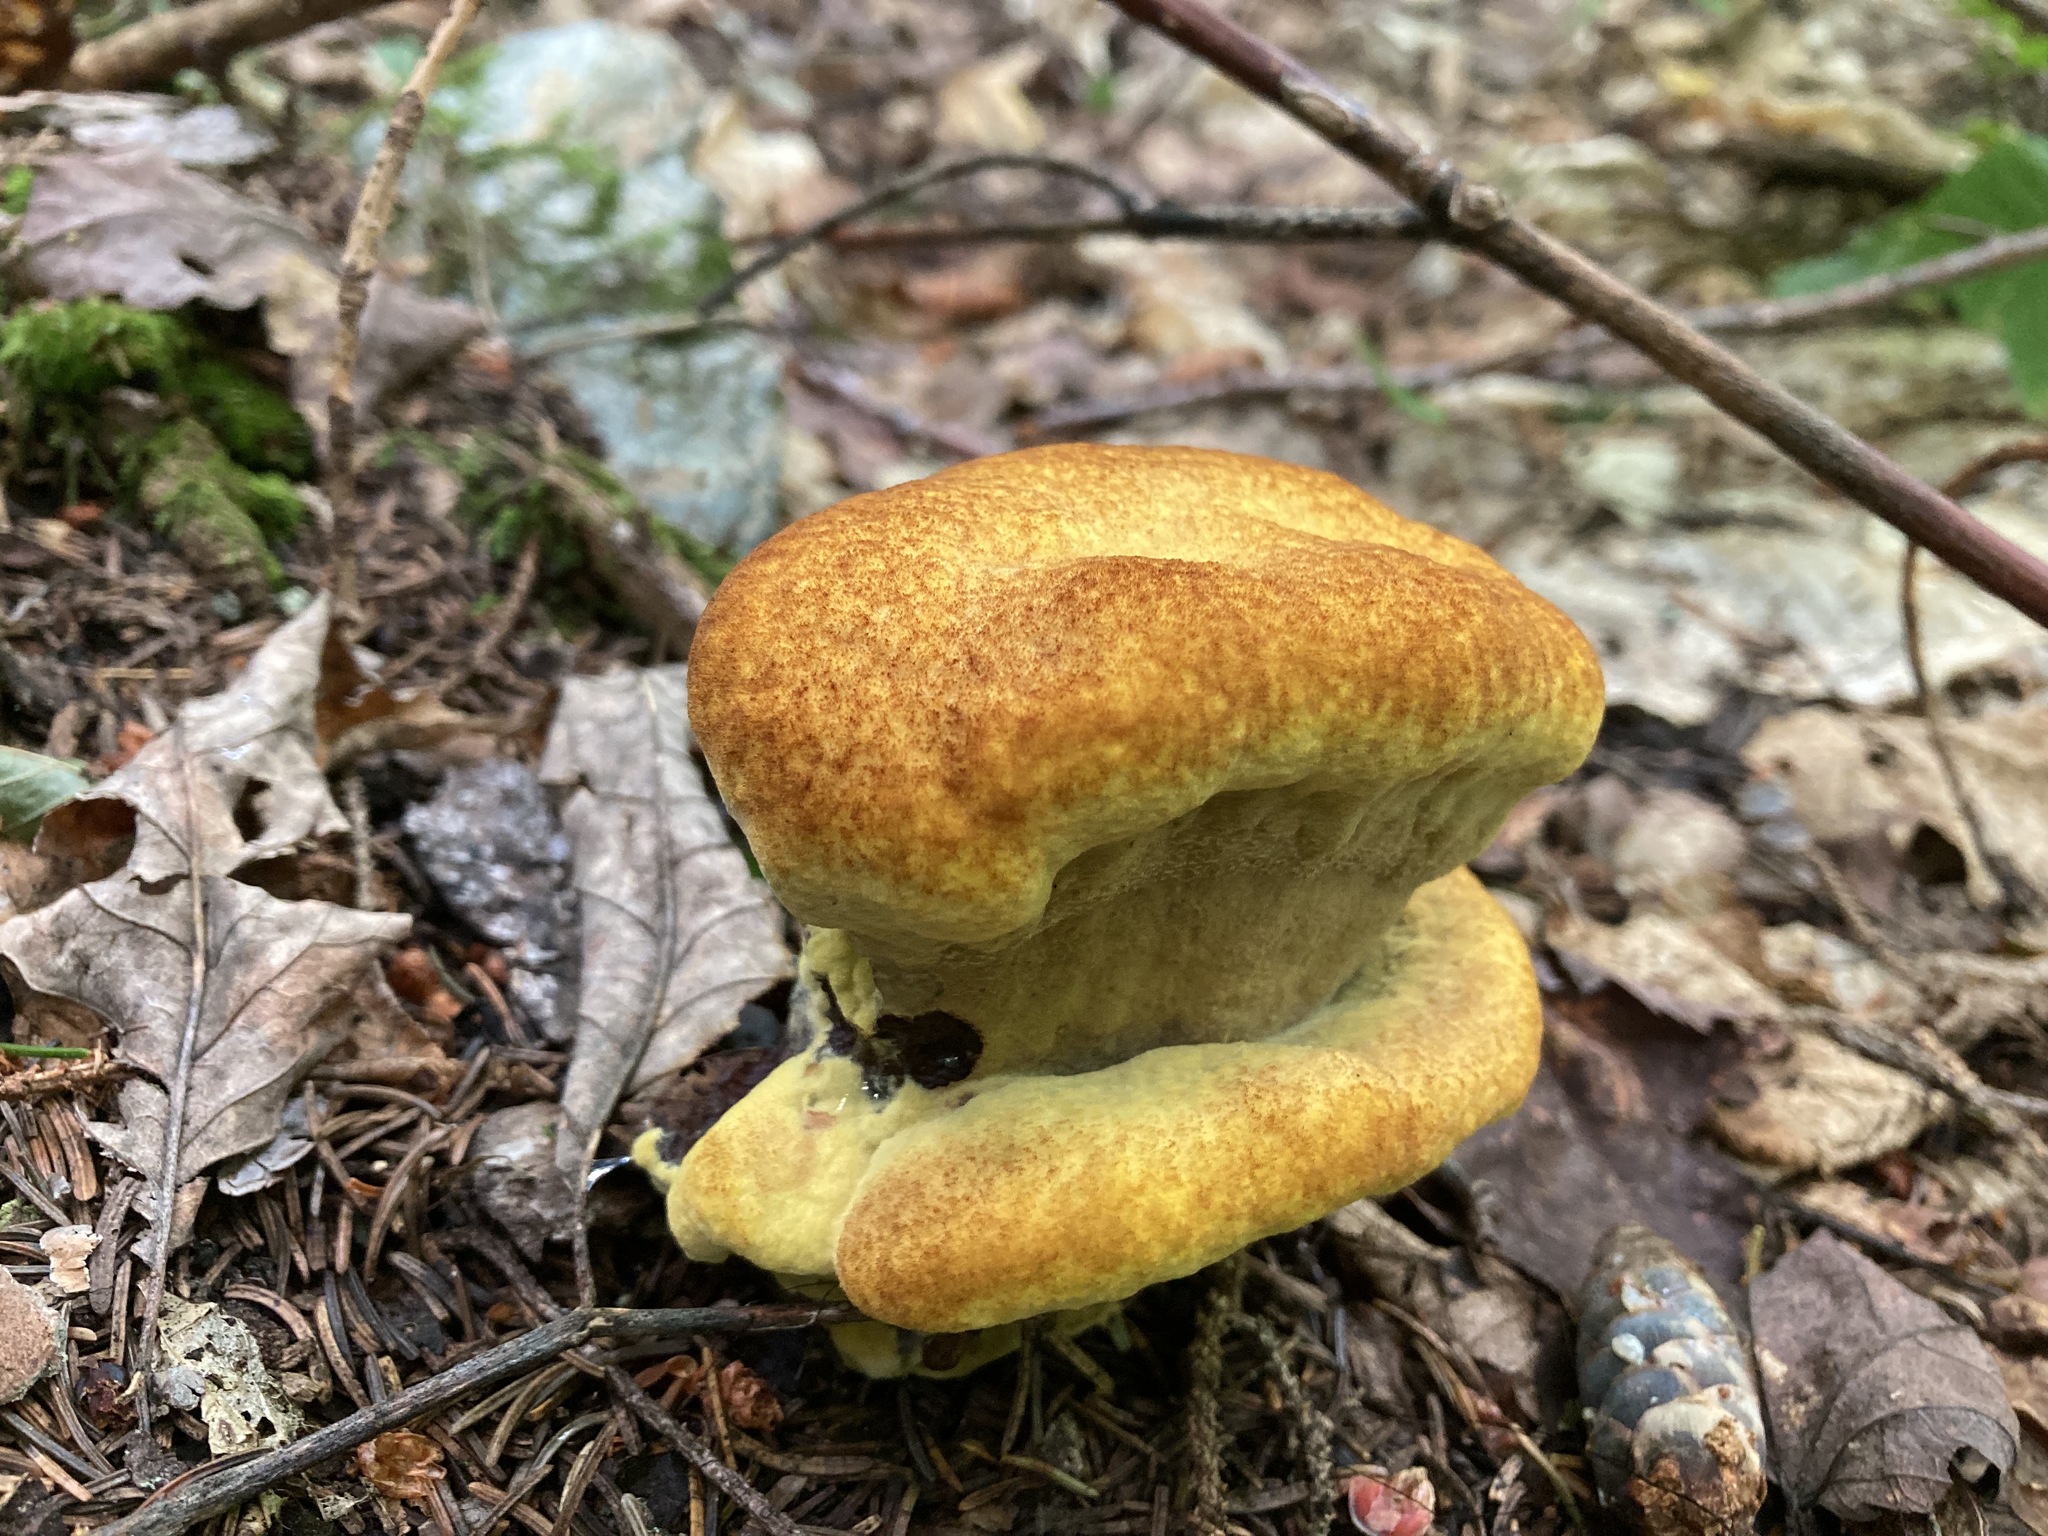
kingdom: Fungi
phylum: Basidiomycota
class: Agaricomycetes
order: Polyporales
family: Laetiporaceae
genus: Phaeolus
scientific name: Phaeolus schweinitzii
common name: Dyer's mazegill
